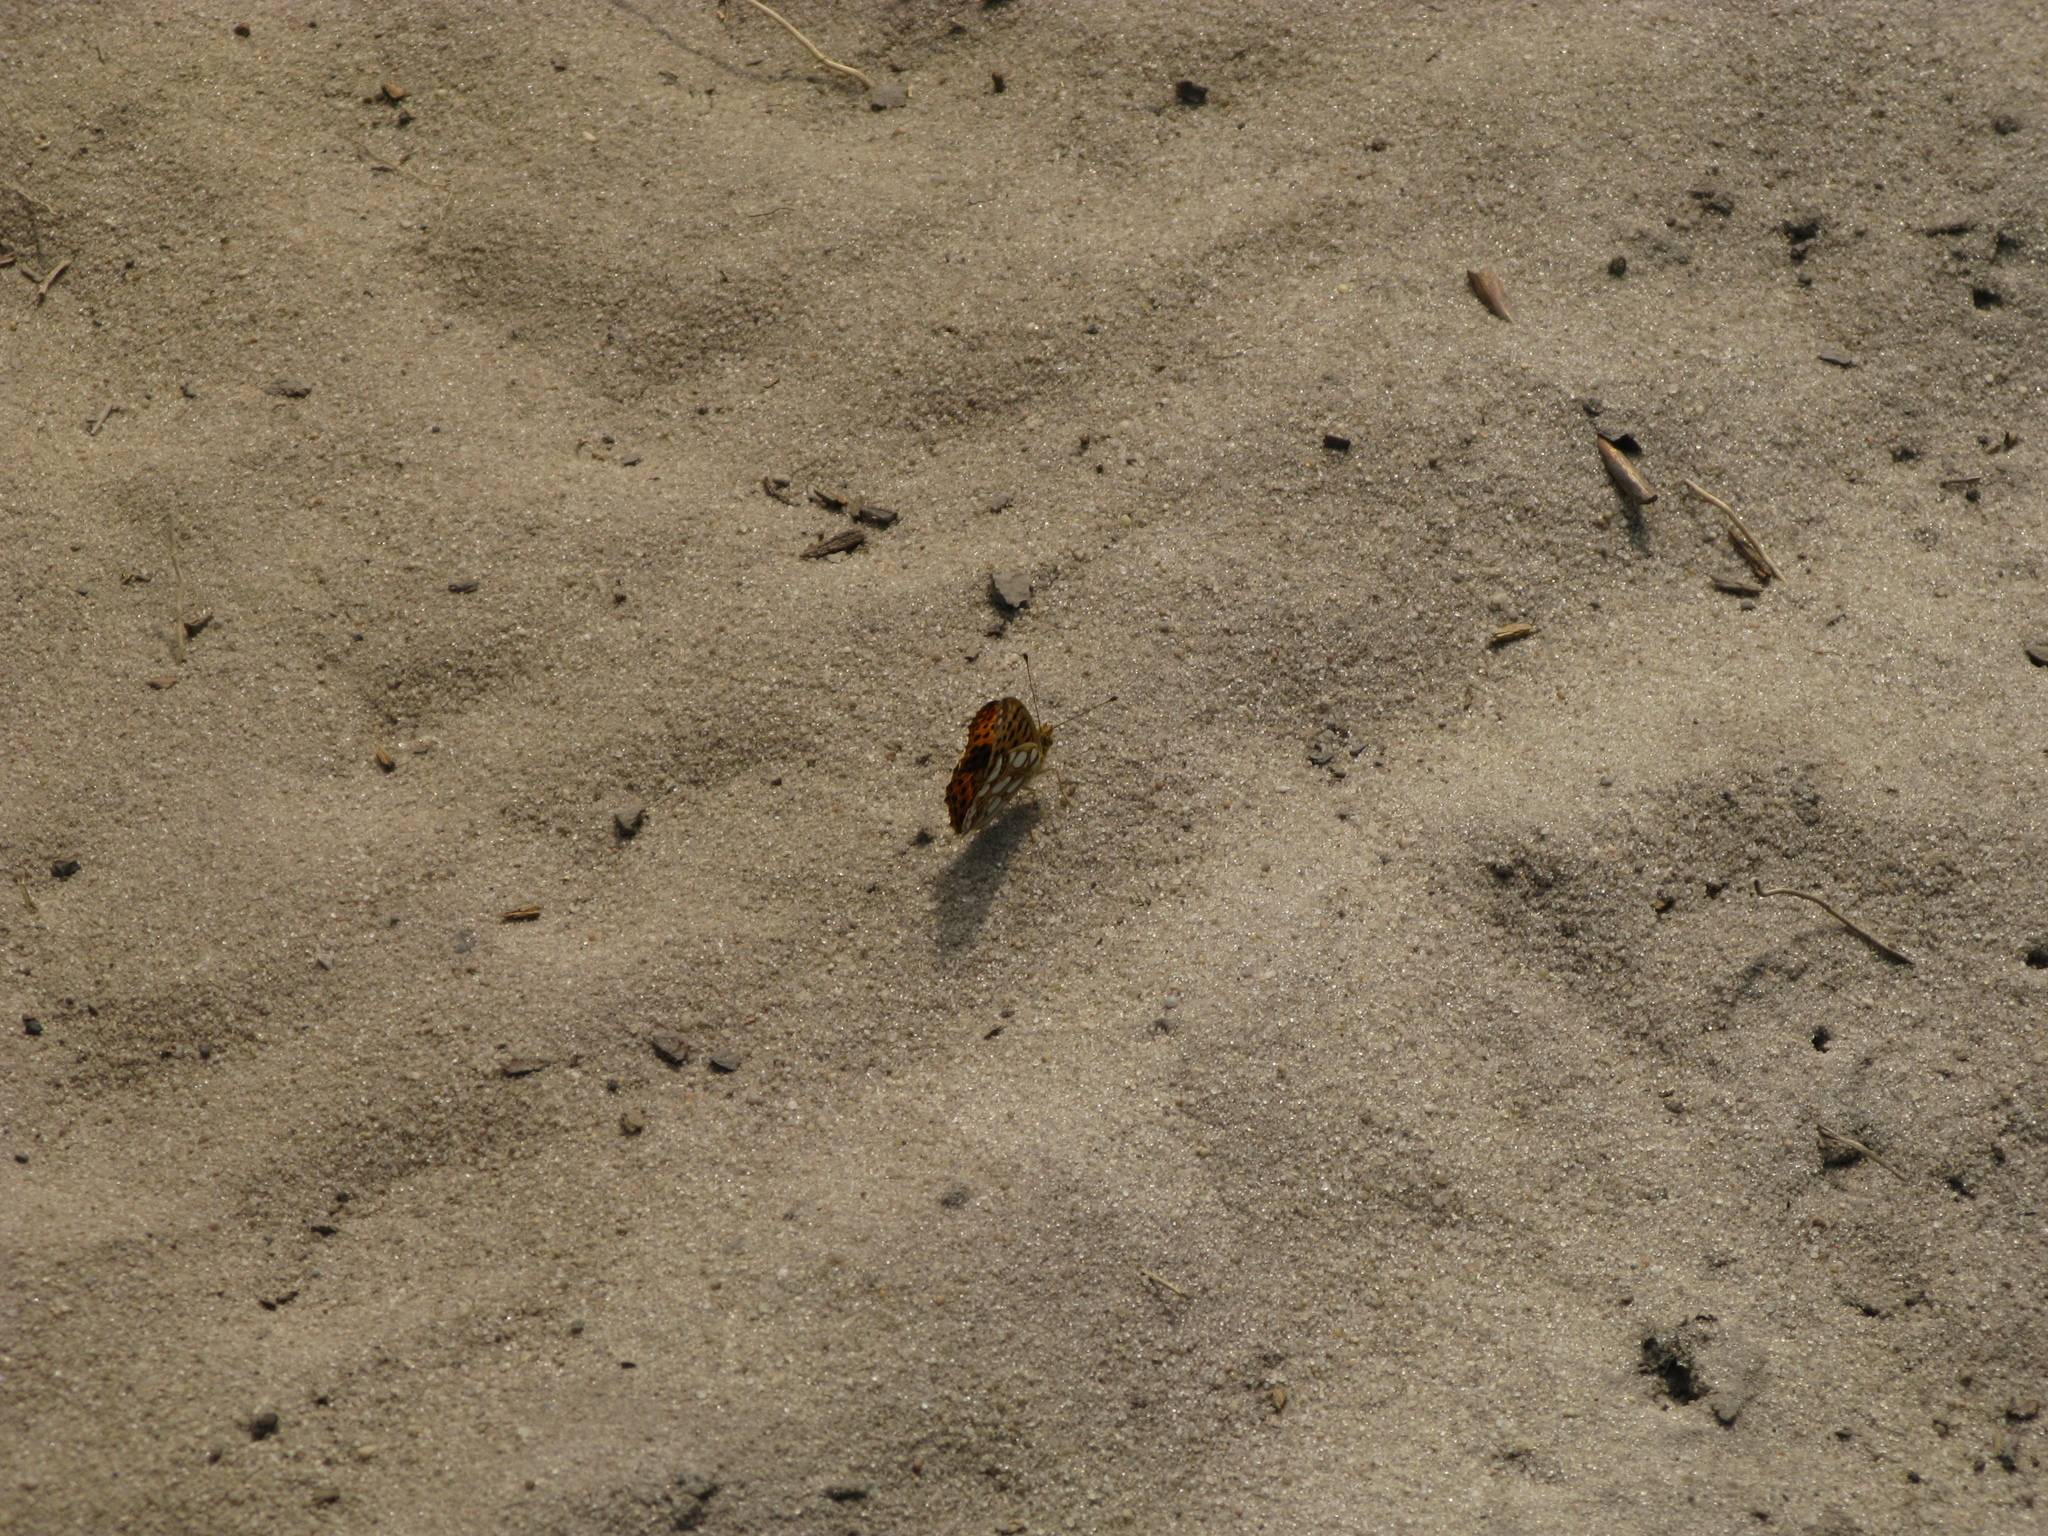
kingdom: Animalia
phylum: Arthropoda
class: Insecta
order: Lepidoptera
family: Nymphalidae
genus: Issoria
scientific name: Issoria lathonia
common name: Queen of spain fritillary
